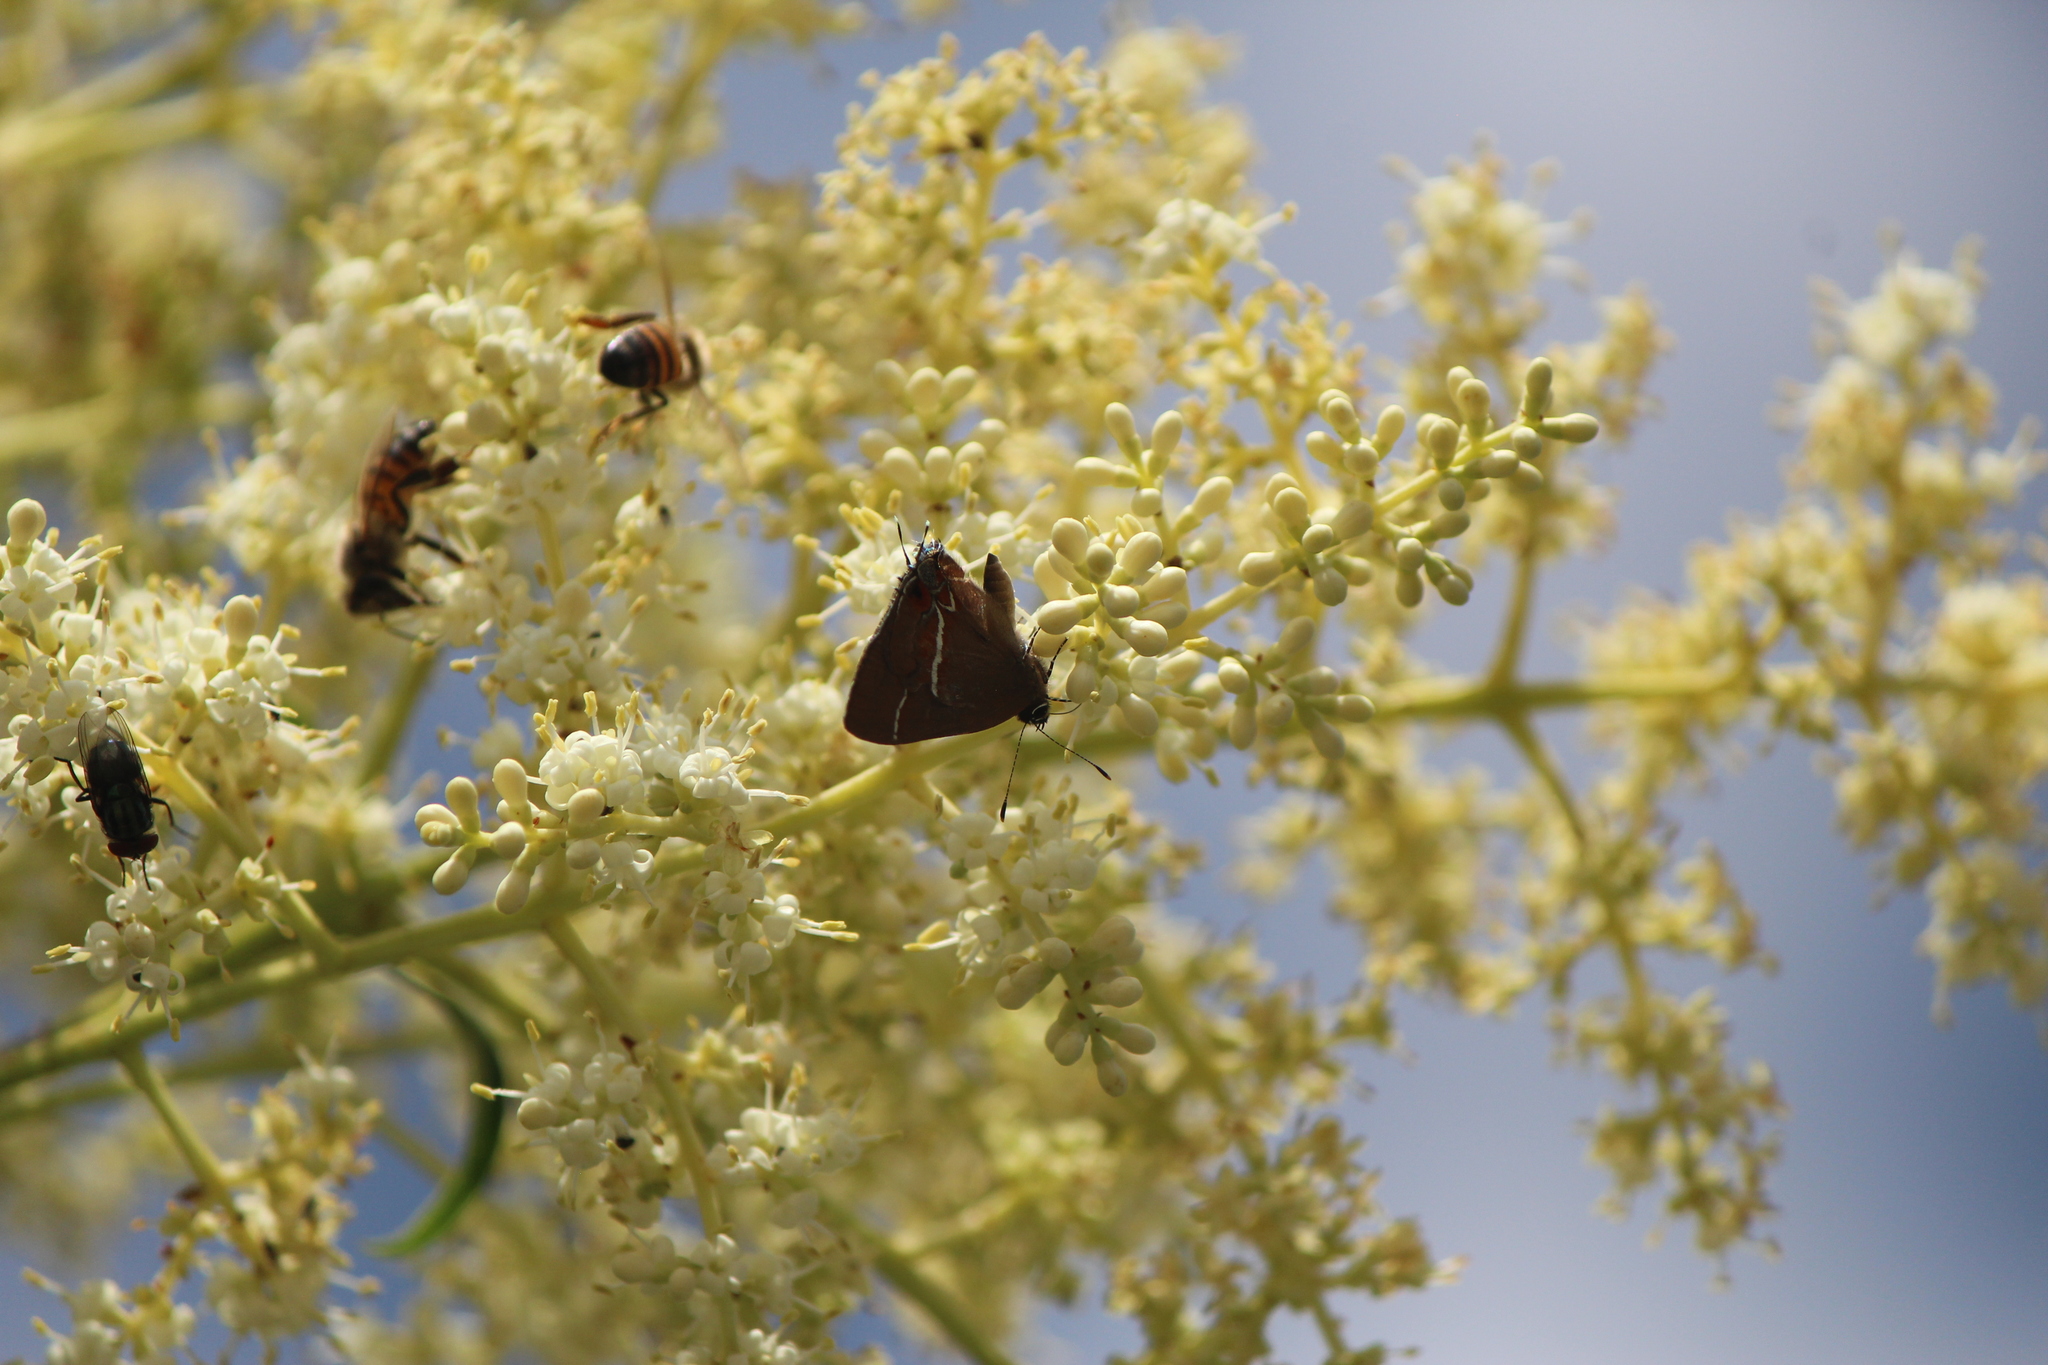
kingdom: Animalia
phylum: Arthropoda
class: Insecta
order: Lepidoptera
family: Lycaenidae
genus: Calycopis
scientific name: Calycopis clarina
